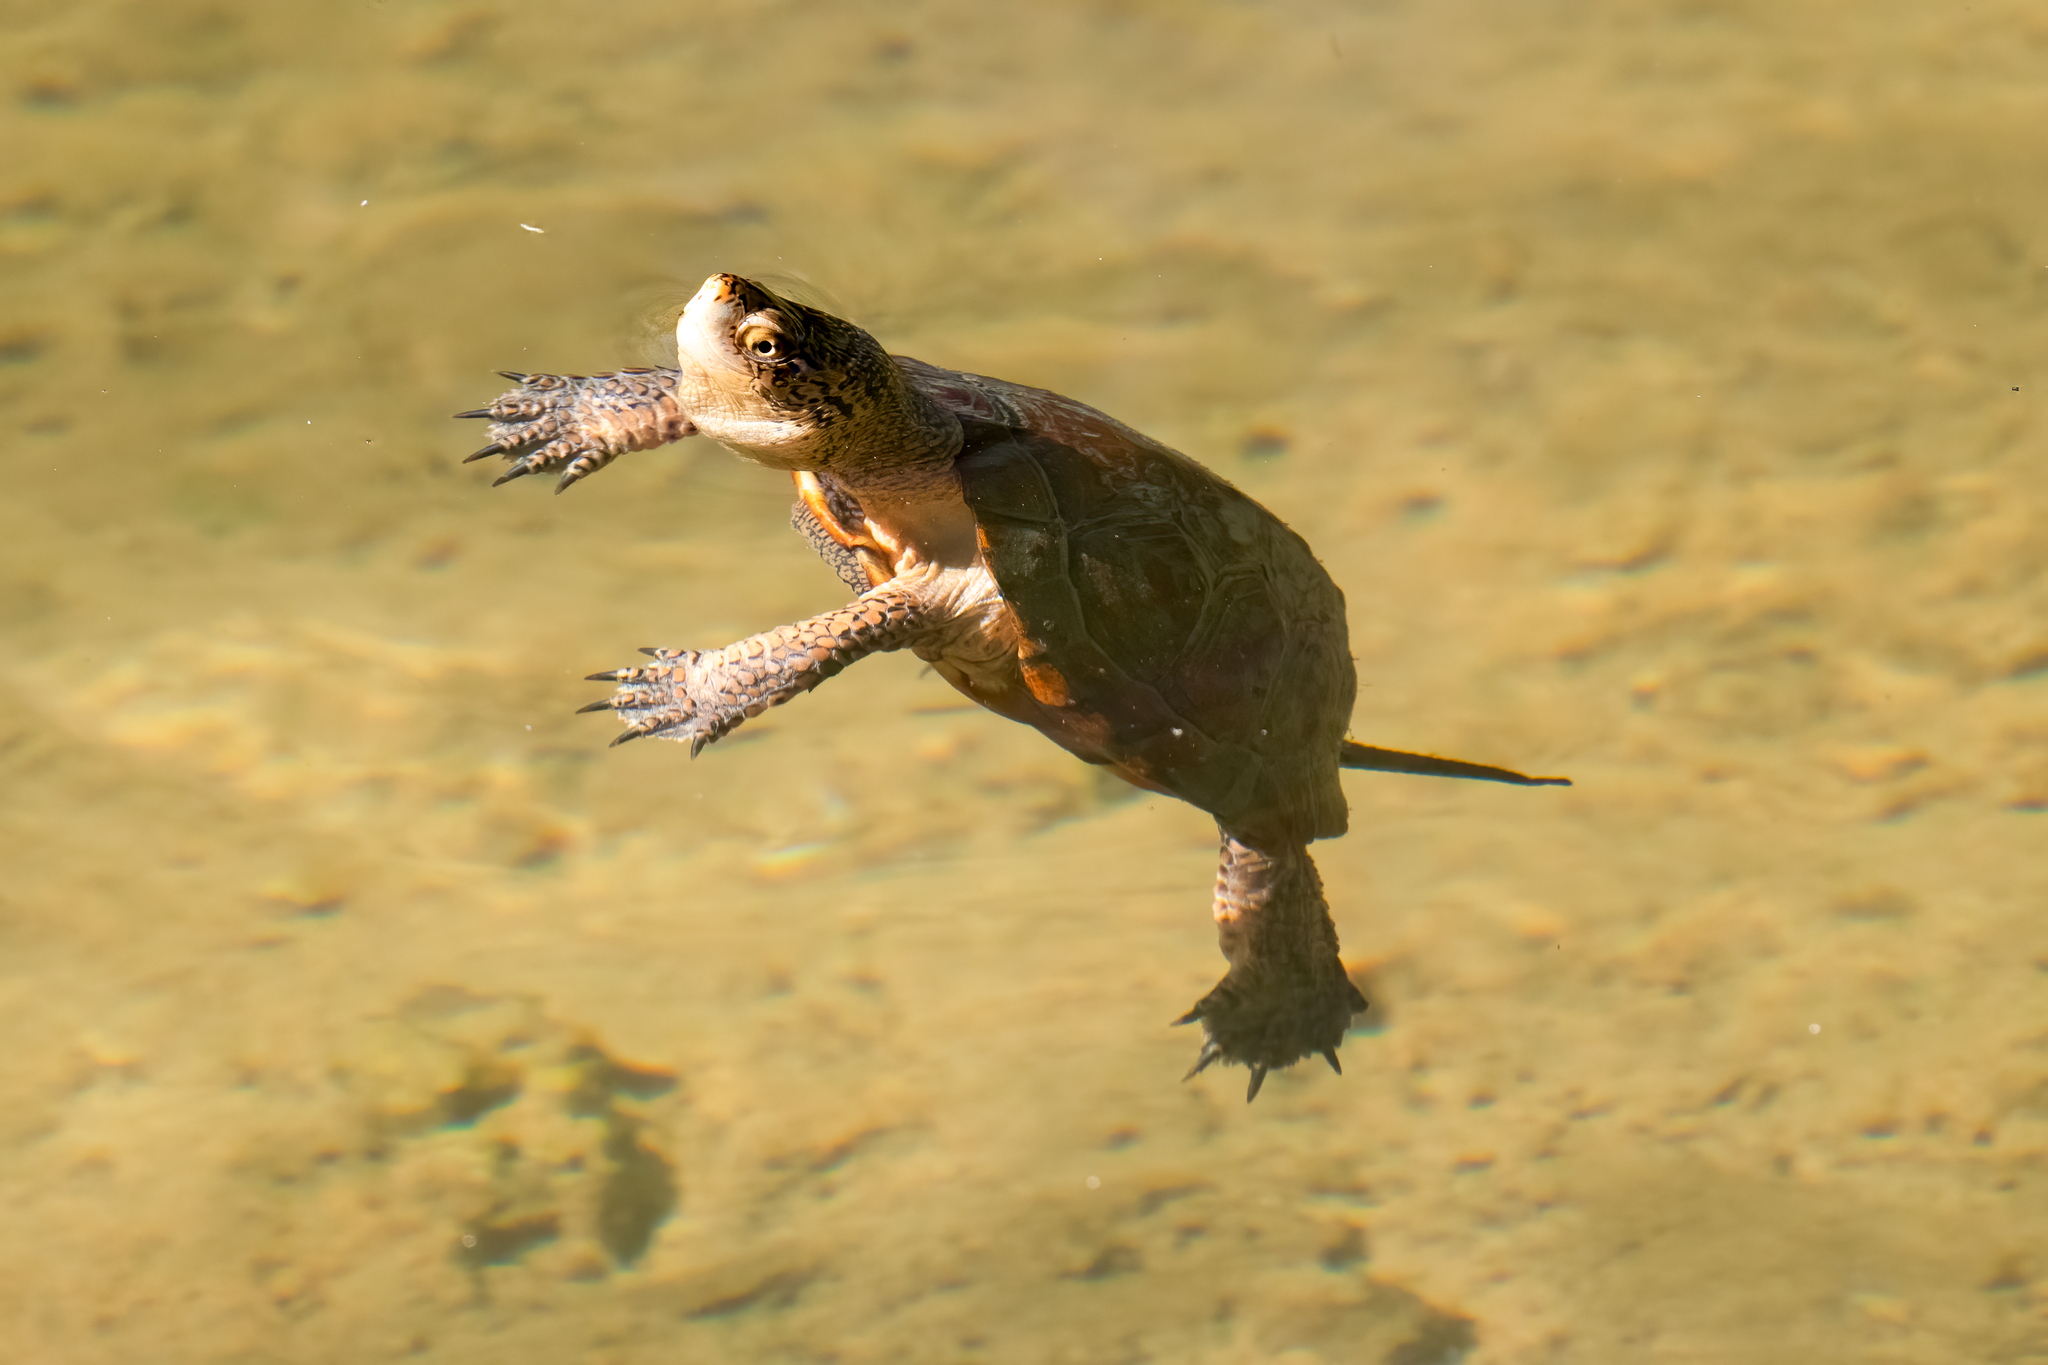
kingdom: Animalia
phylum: Chordata
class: Testudines
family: Emydidae
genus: Actinemys
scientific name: Actinemys marmorata
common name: Western pond turtle
